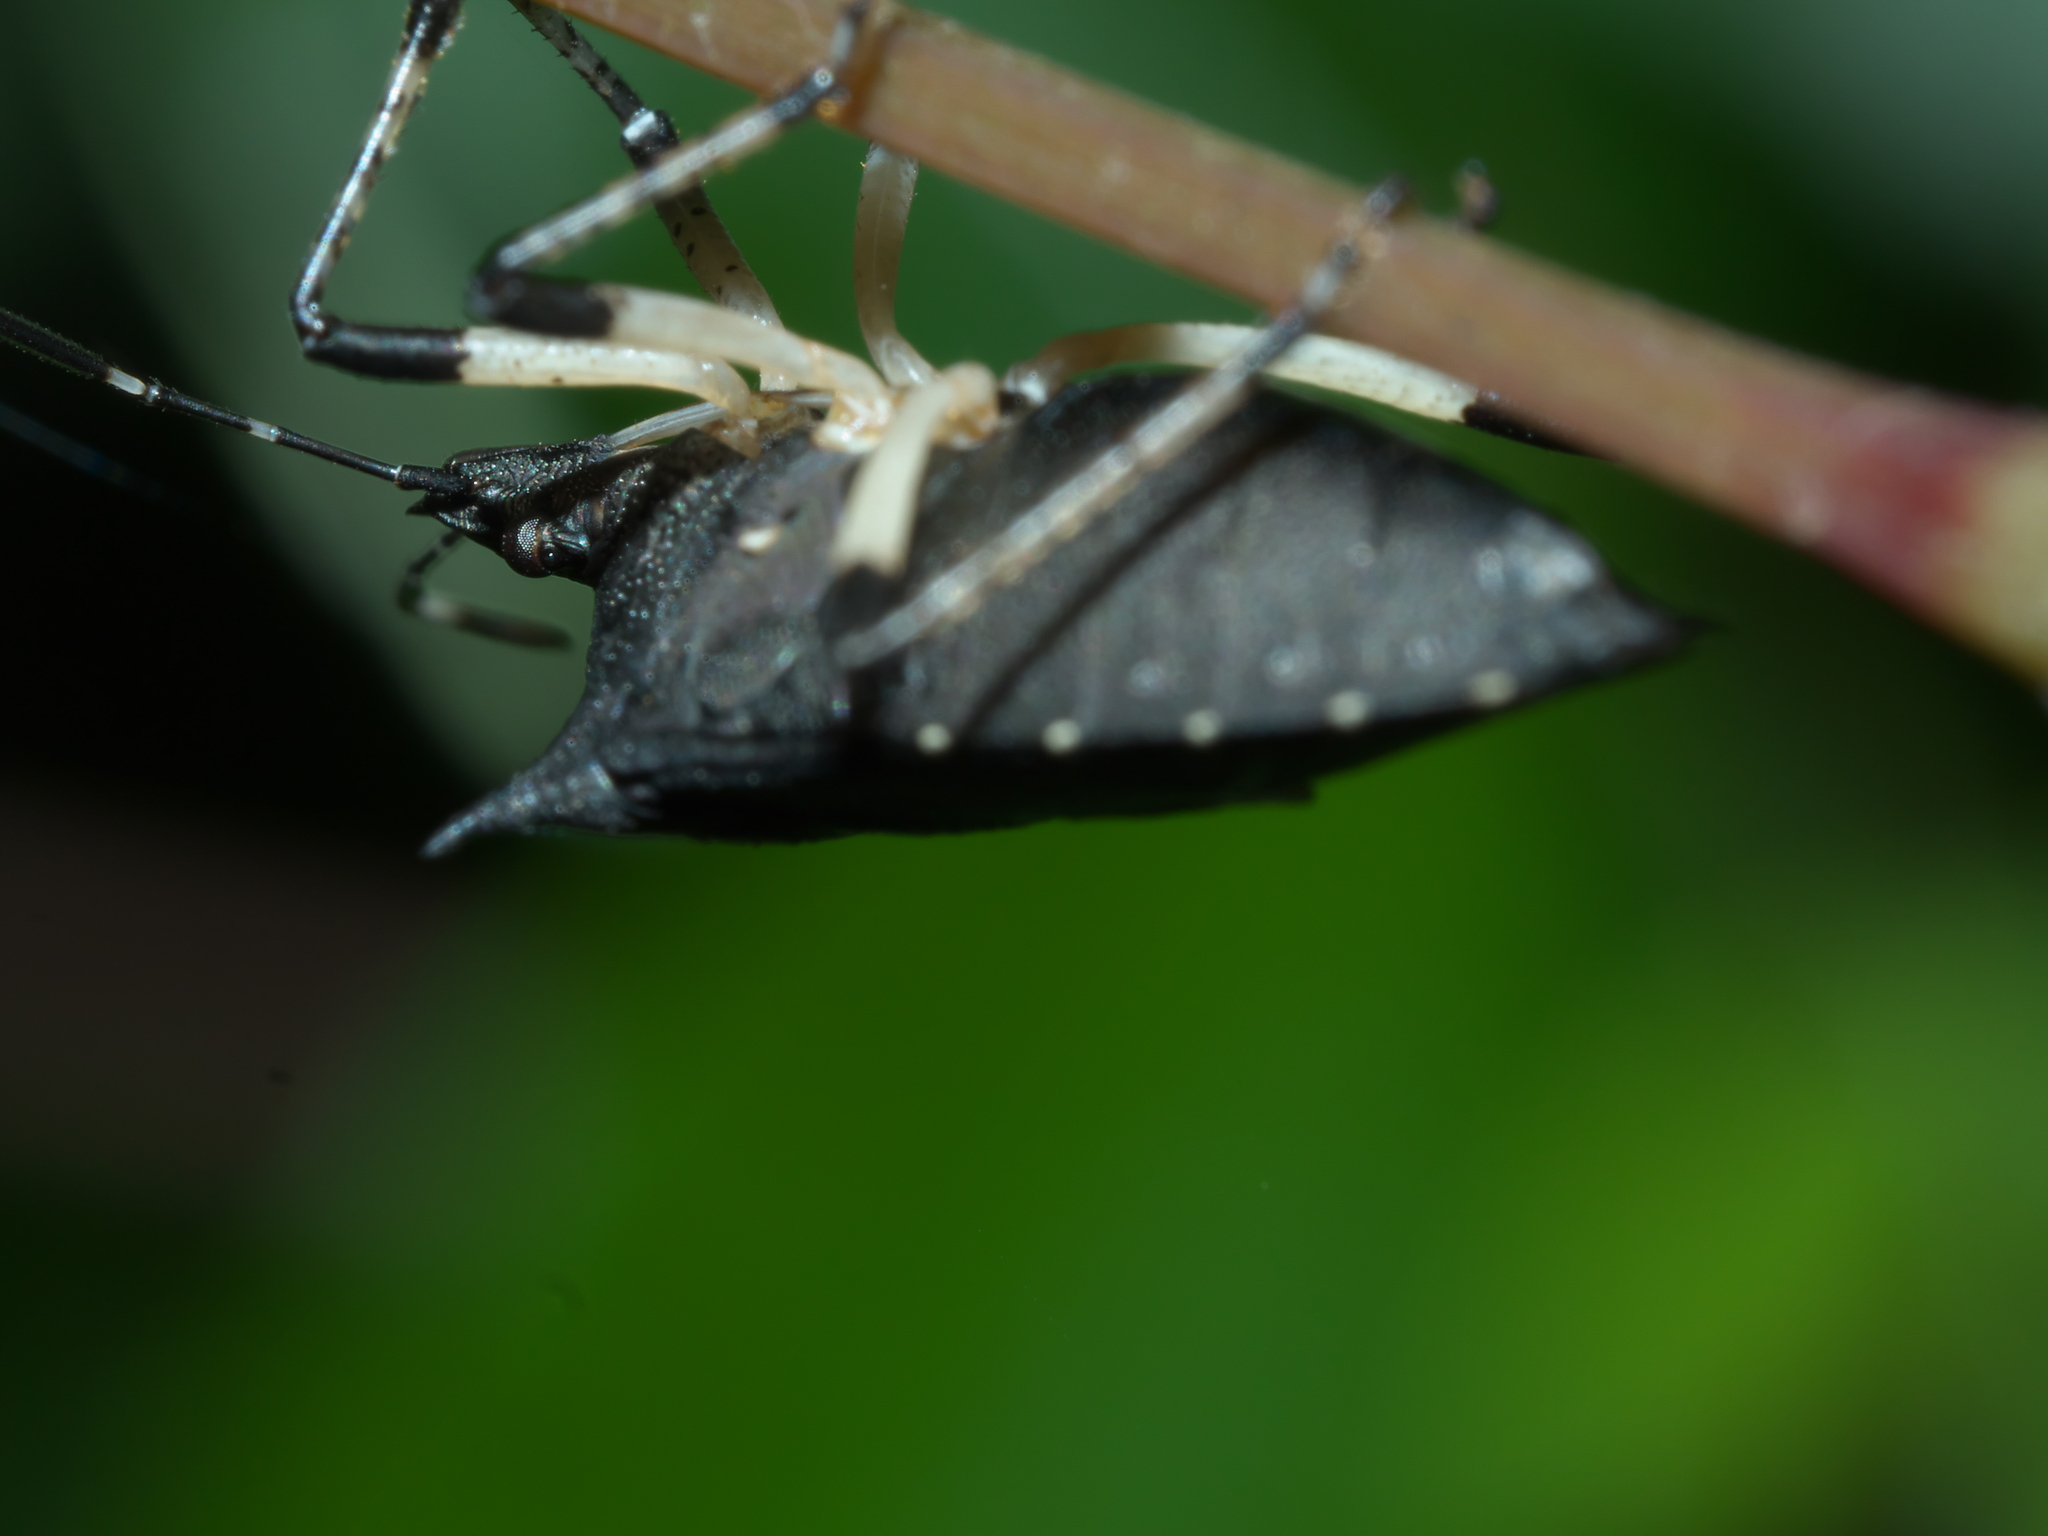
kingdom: Animalia
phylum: Arthropoda
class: Insecta
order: Hemiptera
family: Pentatomidae
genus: Proxys
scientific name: Proxys punctulatus
